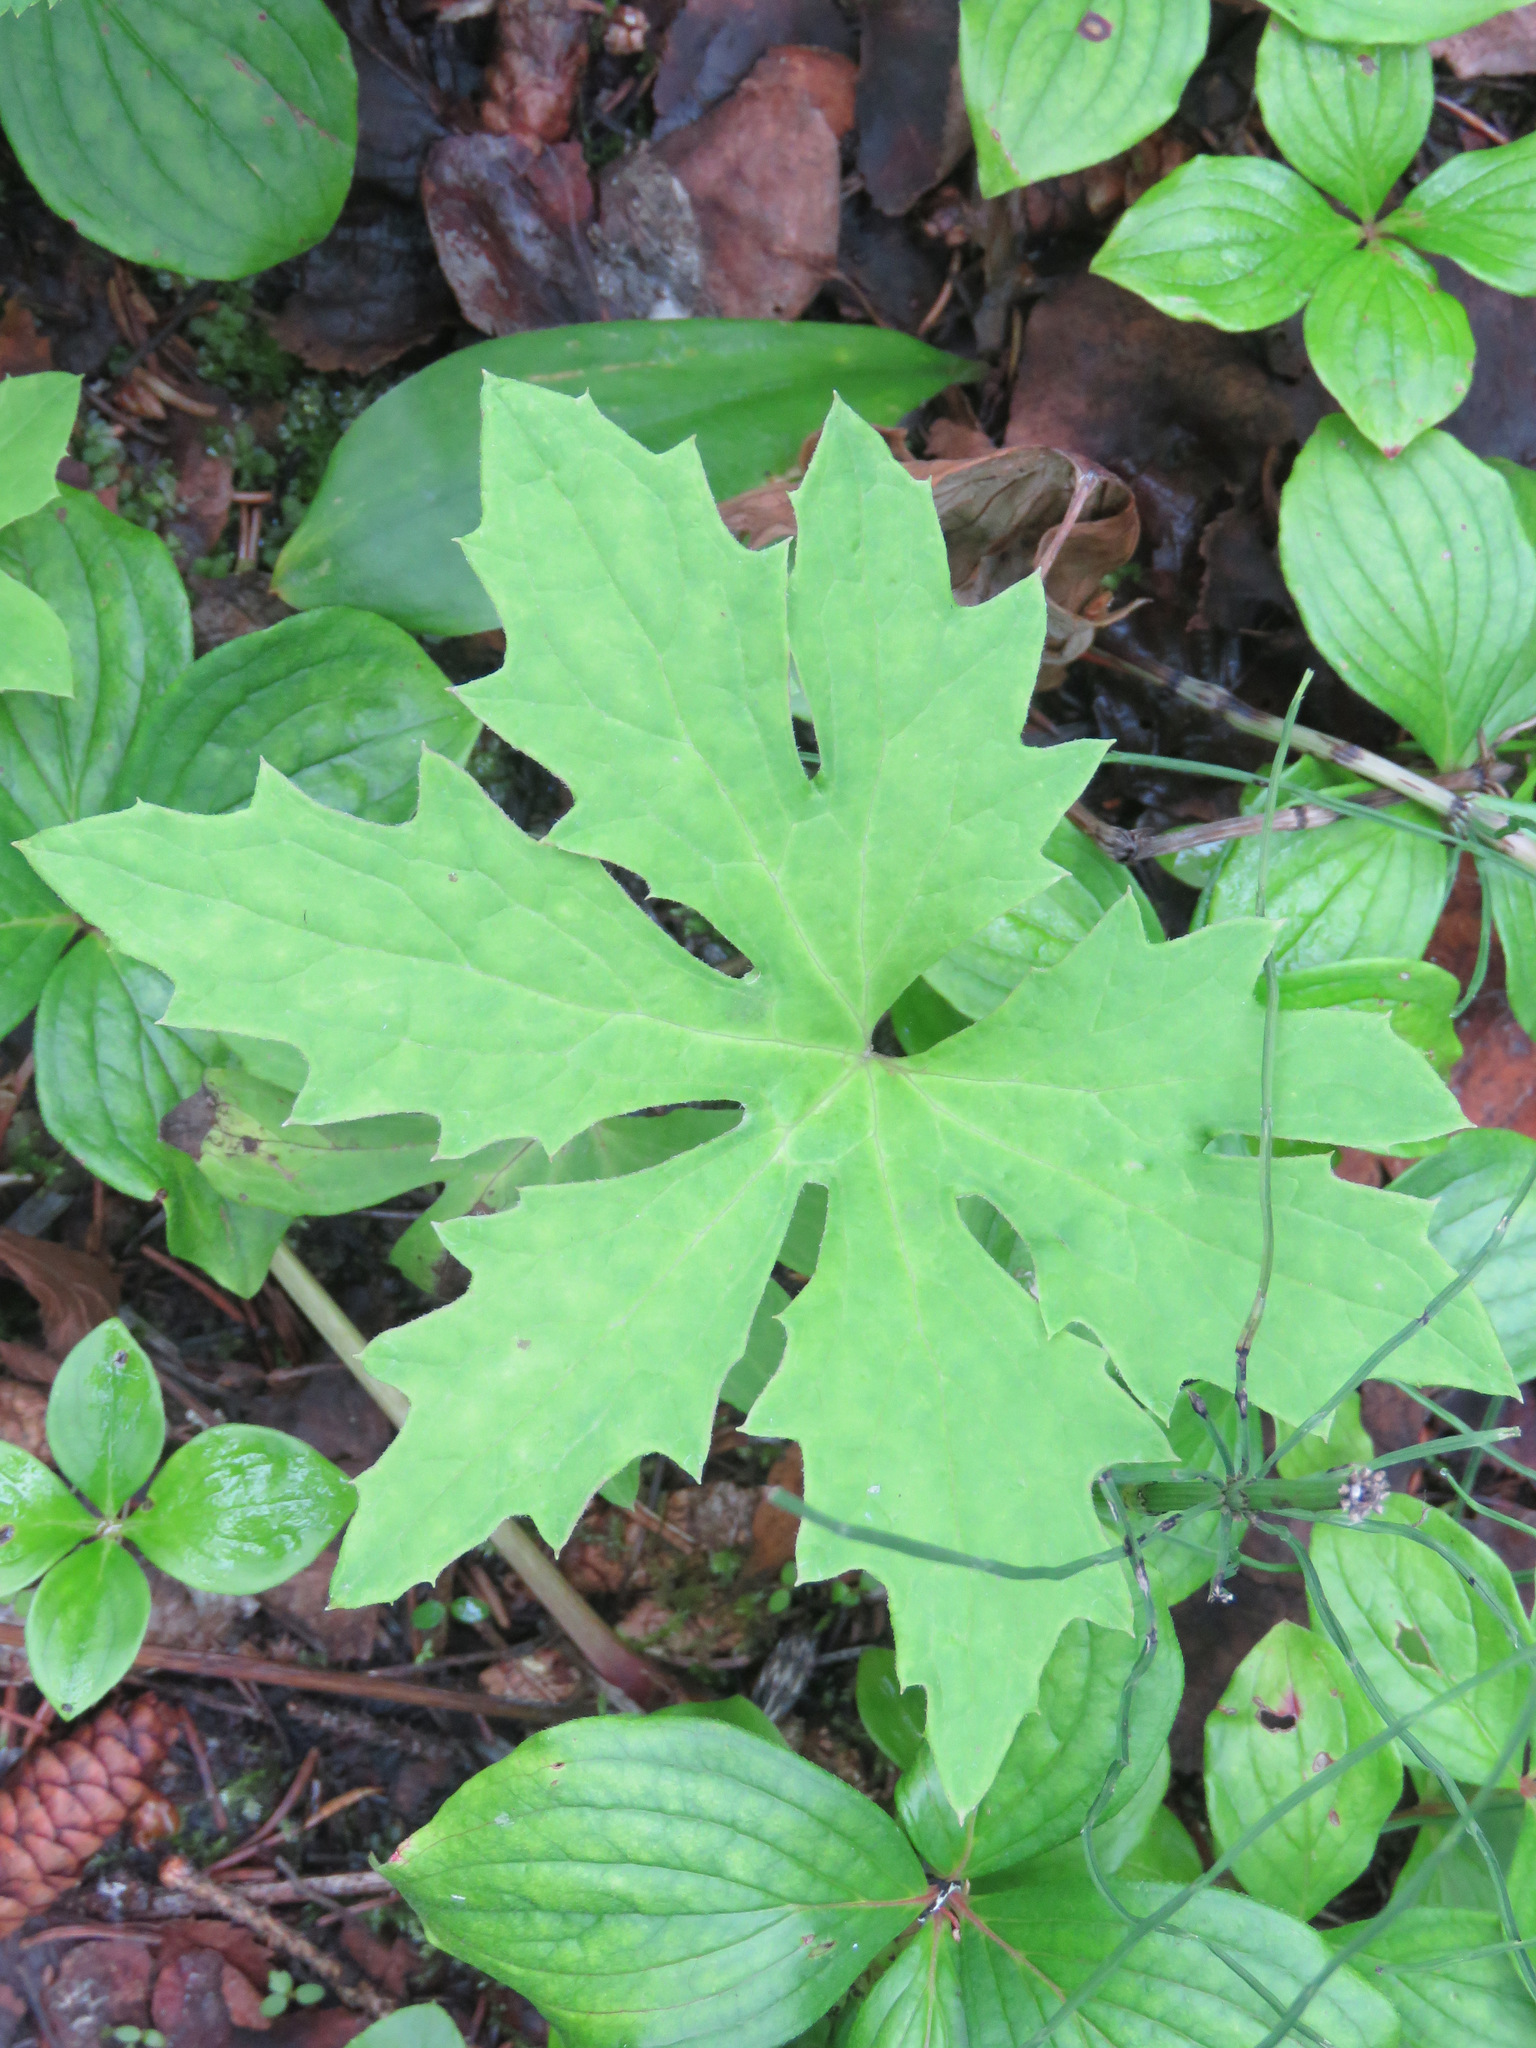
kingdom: Plantae
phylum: Tracheophyta
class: Magnoliopsida
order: Asterales
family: Asteraceae
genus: Petasites
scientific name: Petasites frigidus
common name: Arctic butterbur
